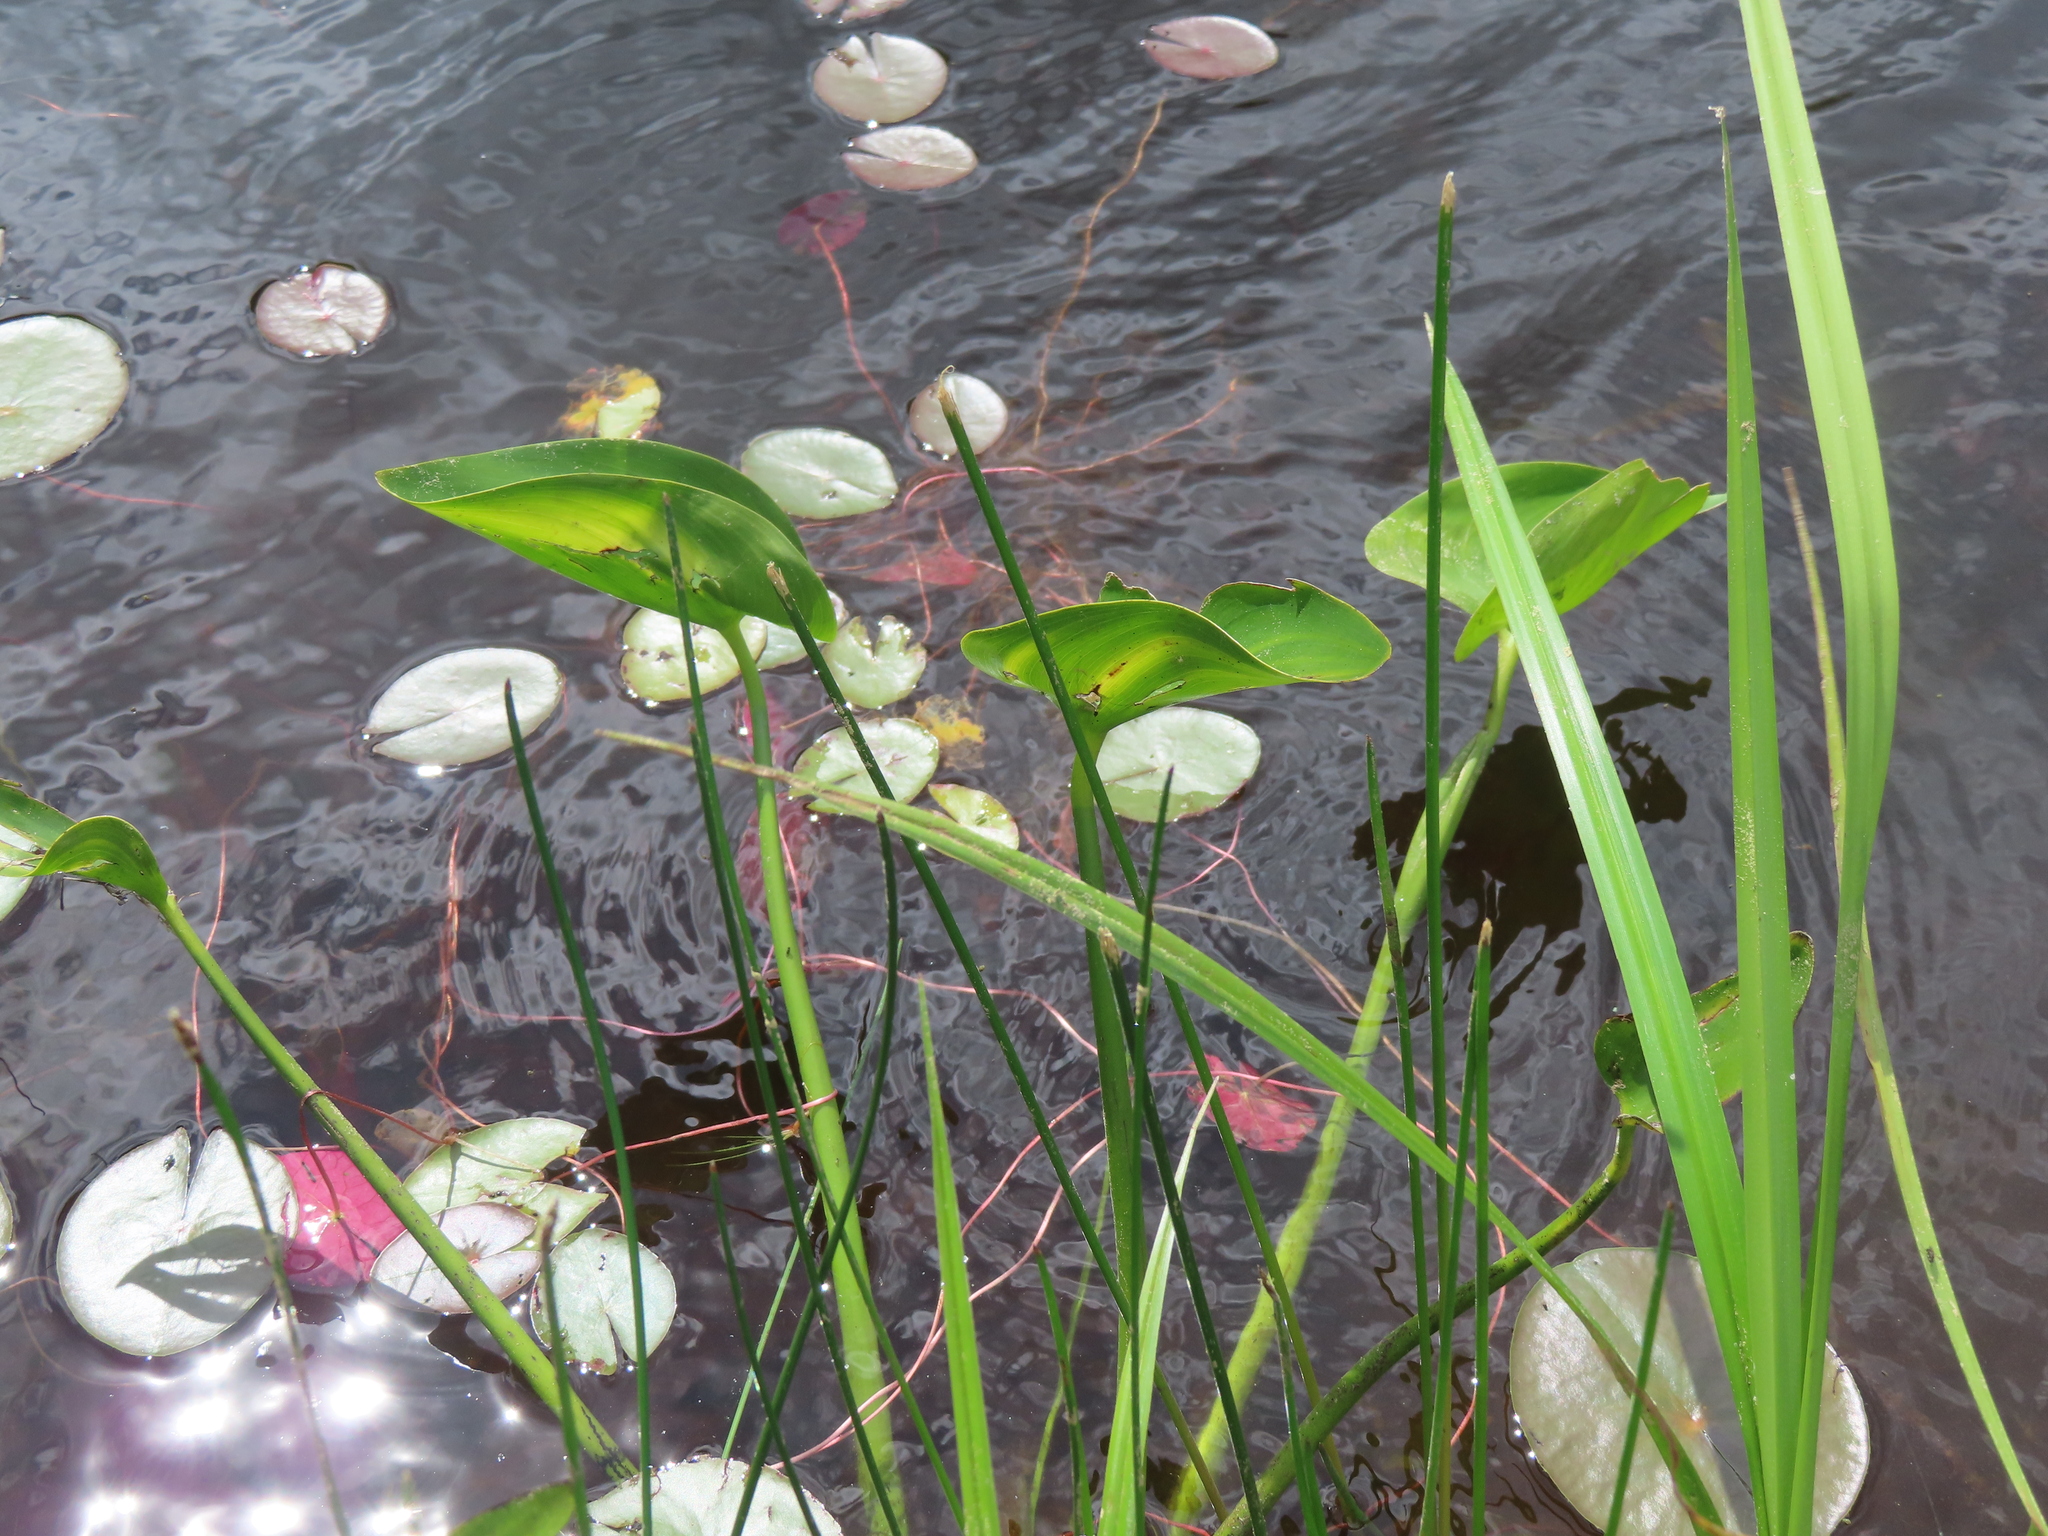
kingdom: Plantae
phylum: Tracheophyta
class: Liliopsida
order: Commelinales
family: Pontederiaceae
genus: Pontederia
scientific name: Pontederia cordata
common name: Pickerelweed
